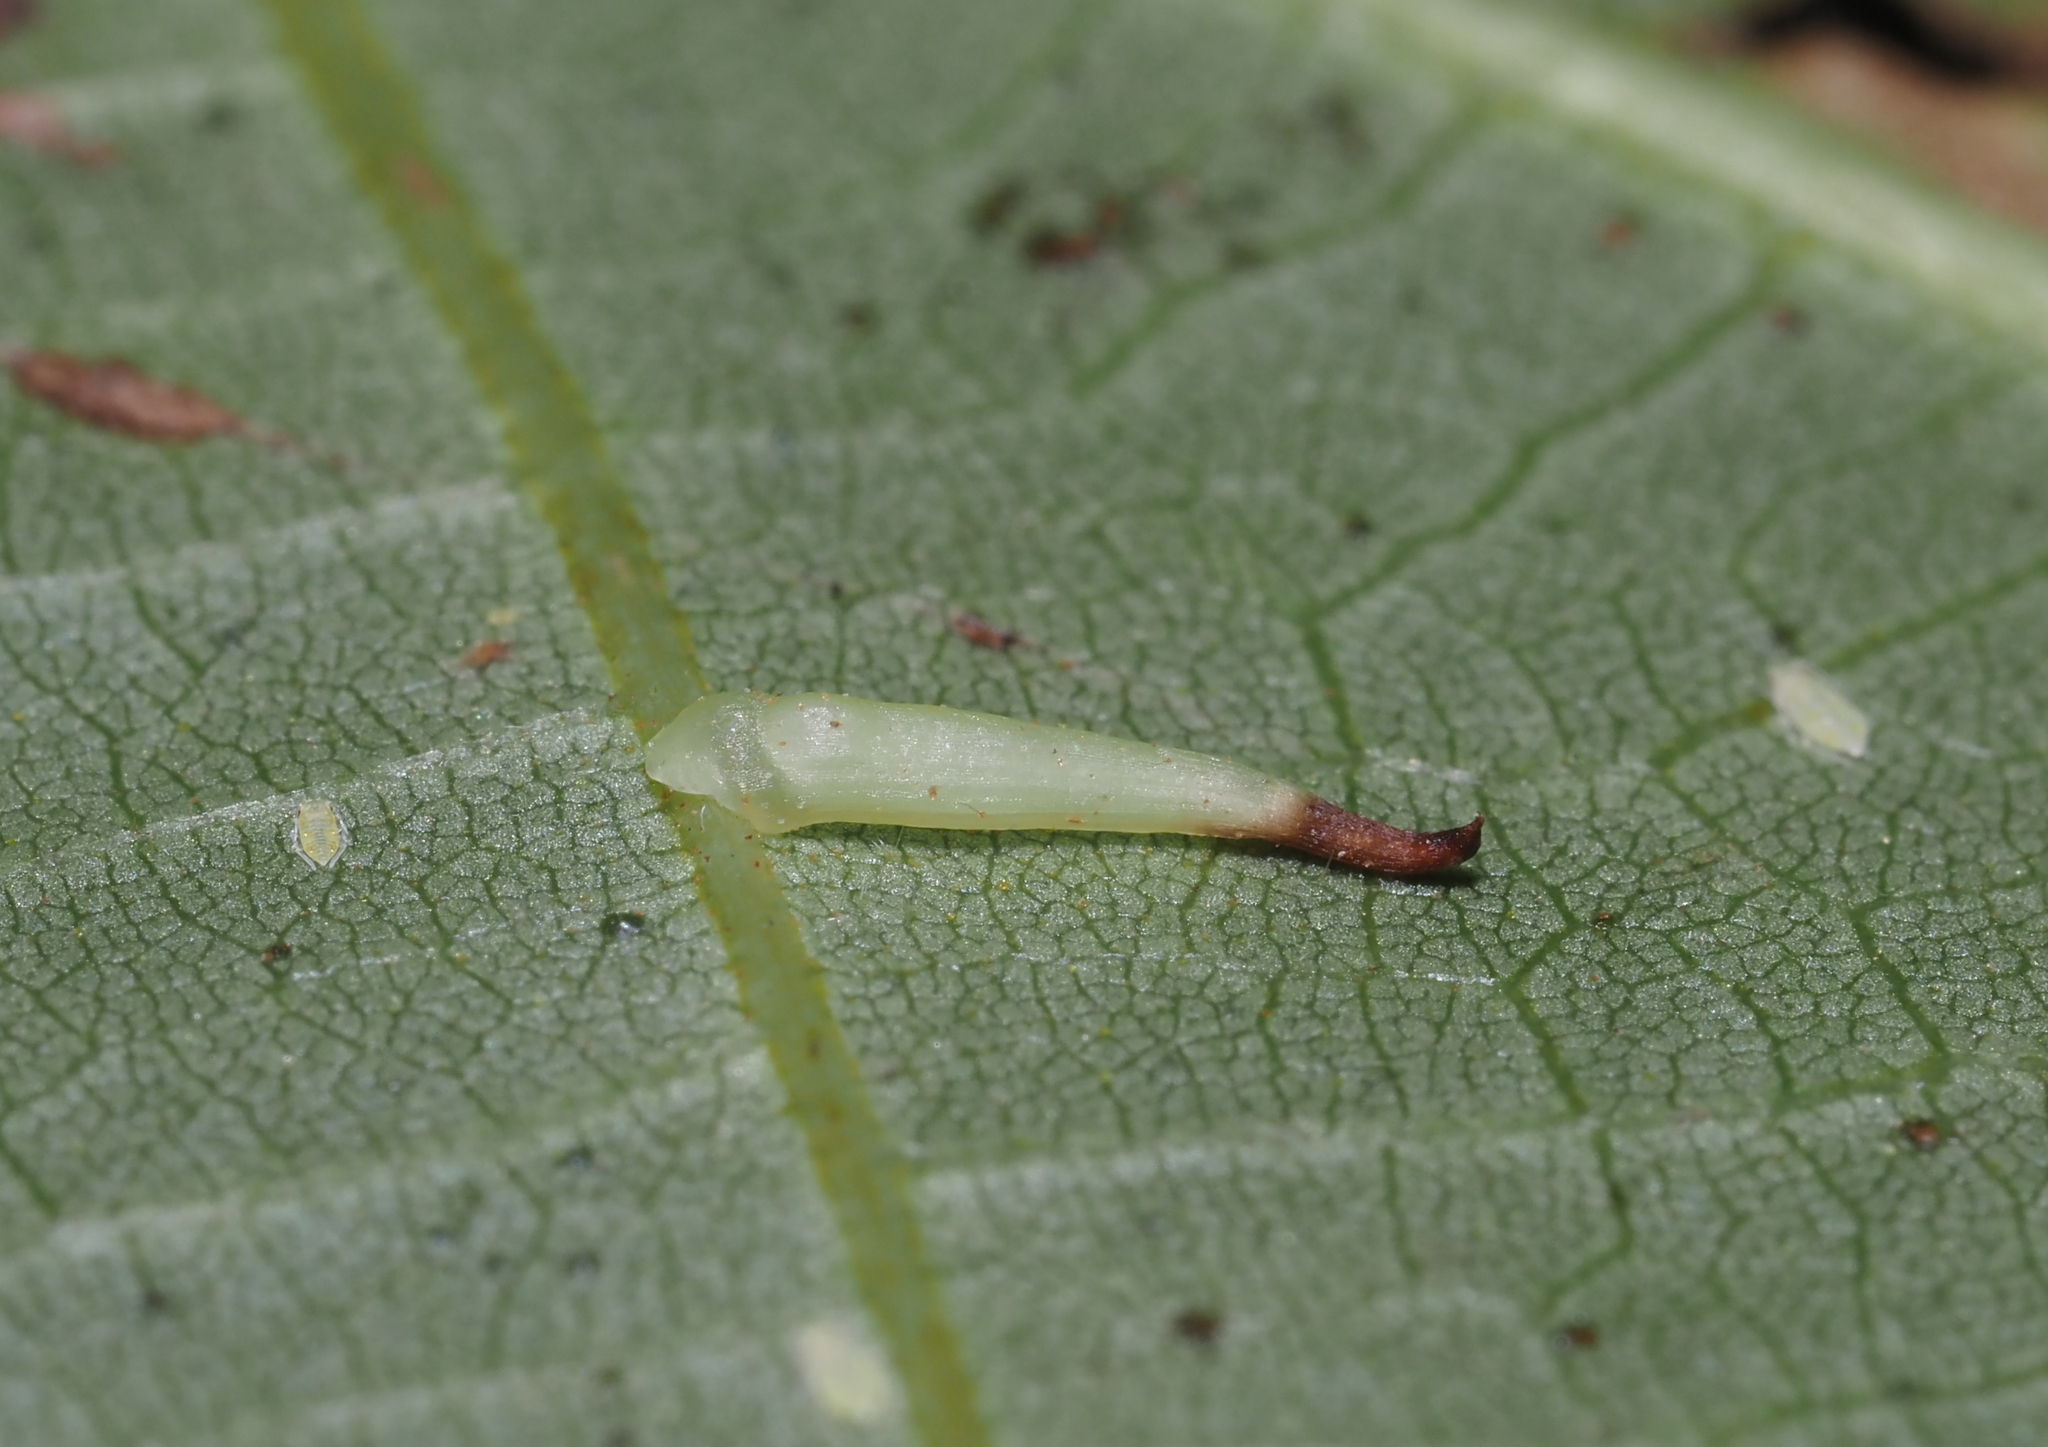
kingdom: Animalia
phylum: Arthropoda
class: Insecta
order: Diptera
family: Cecidomyiidae
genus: Caryomyia
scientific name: Caryomyia
